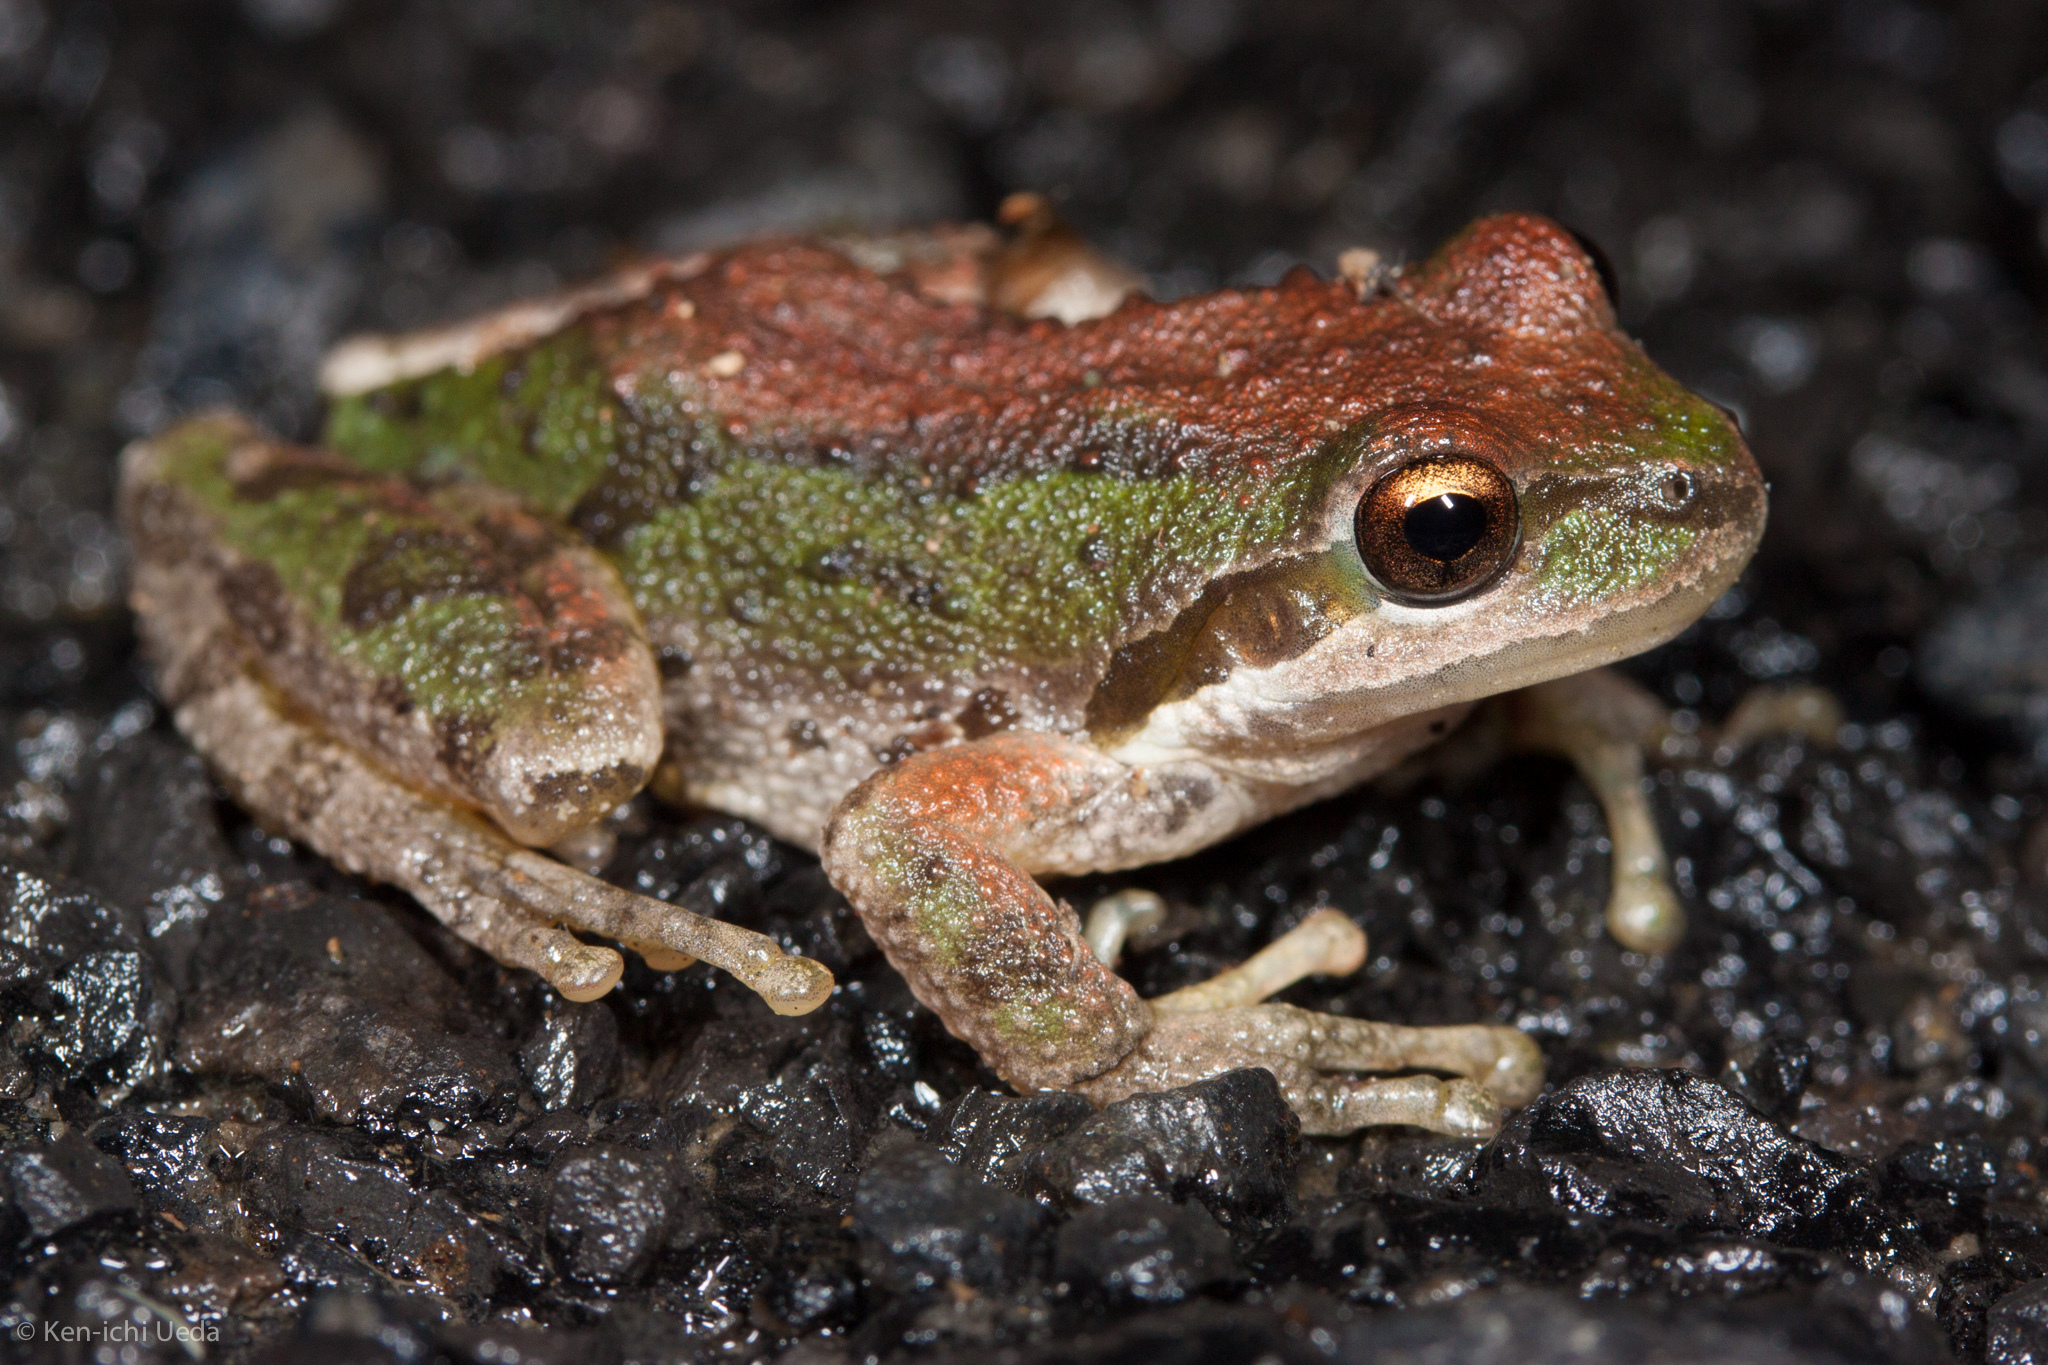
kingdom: Animalia
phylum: Chordata
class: Amphibia
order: Anura
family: Hylidae
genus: Pseudacris
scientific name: Pseudacris regilla
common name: Pacific chorus frog
